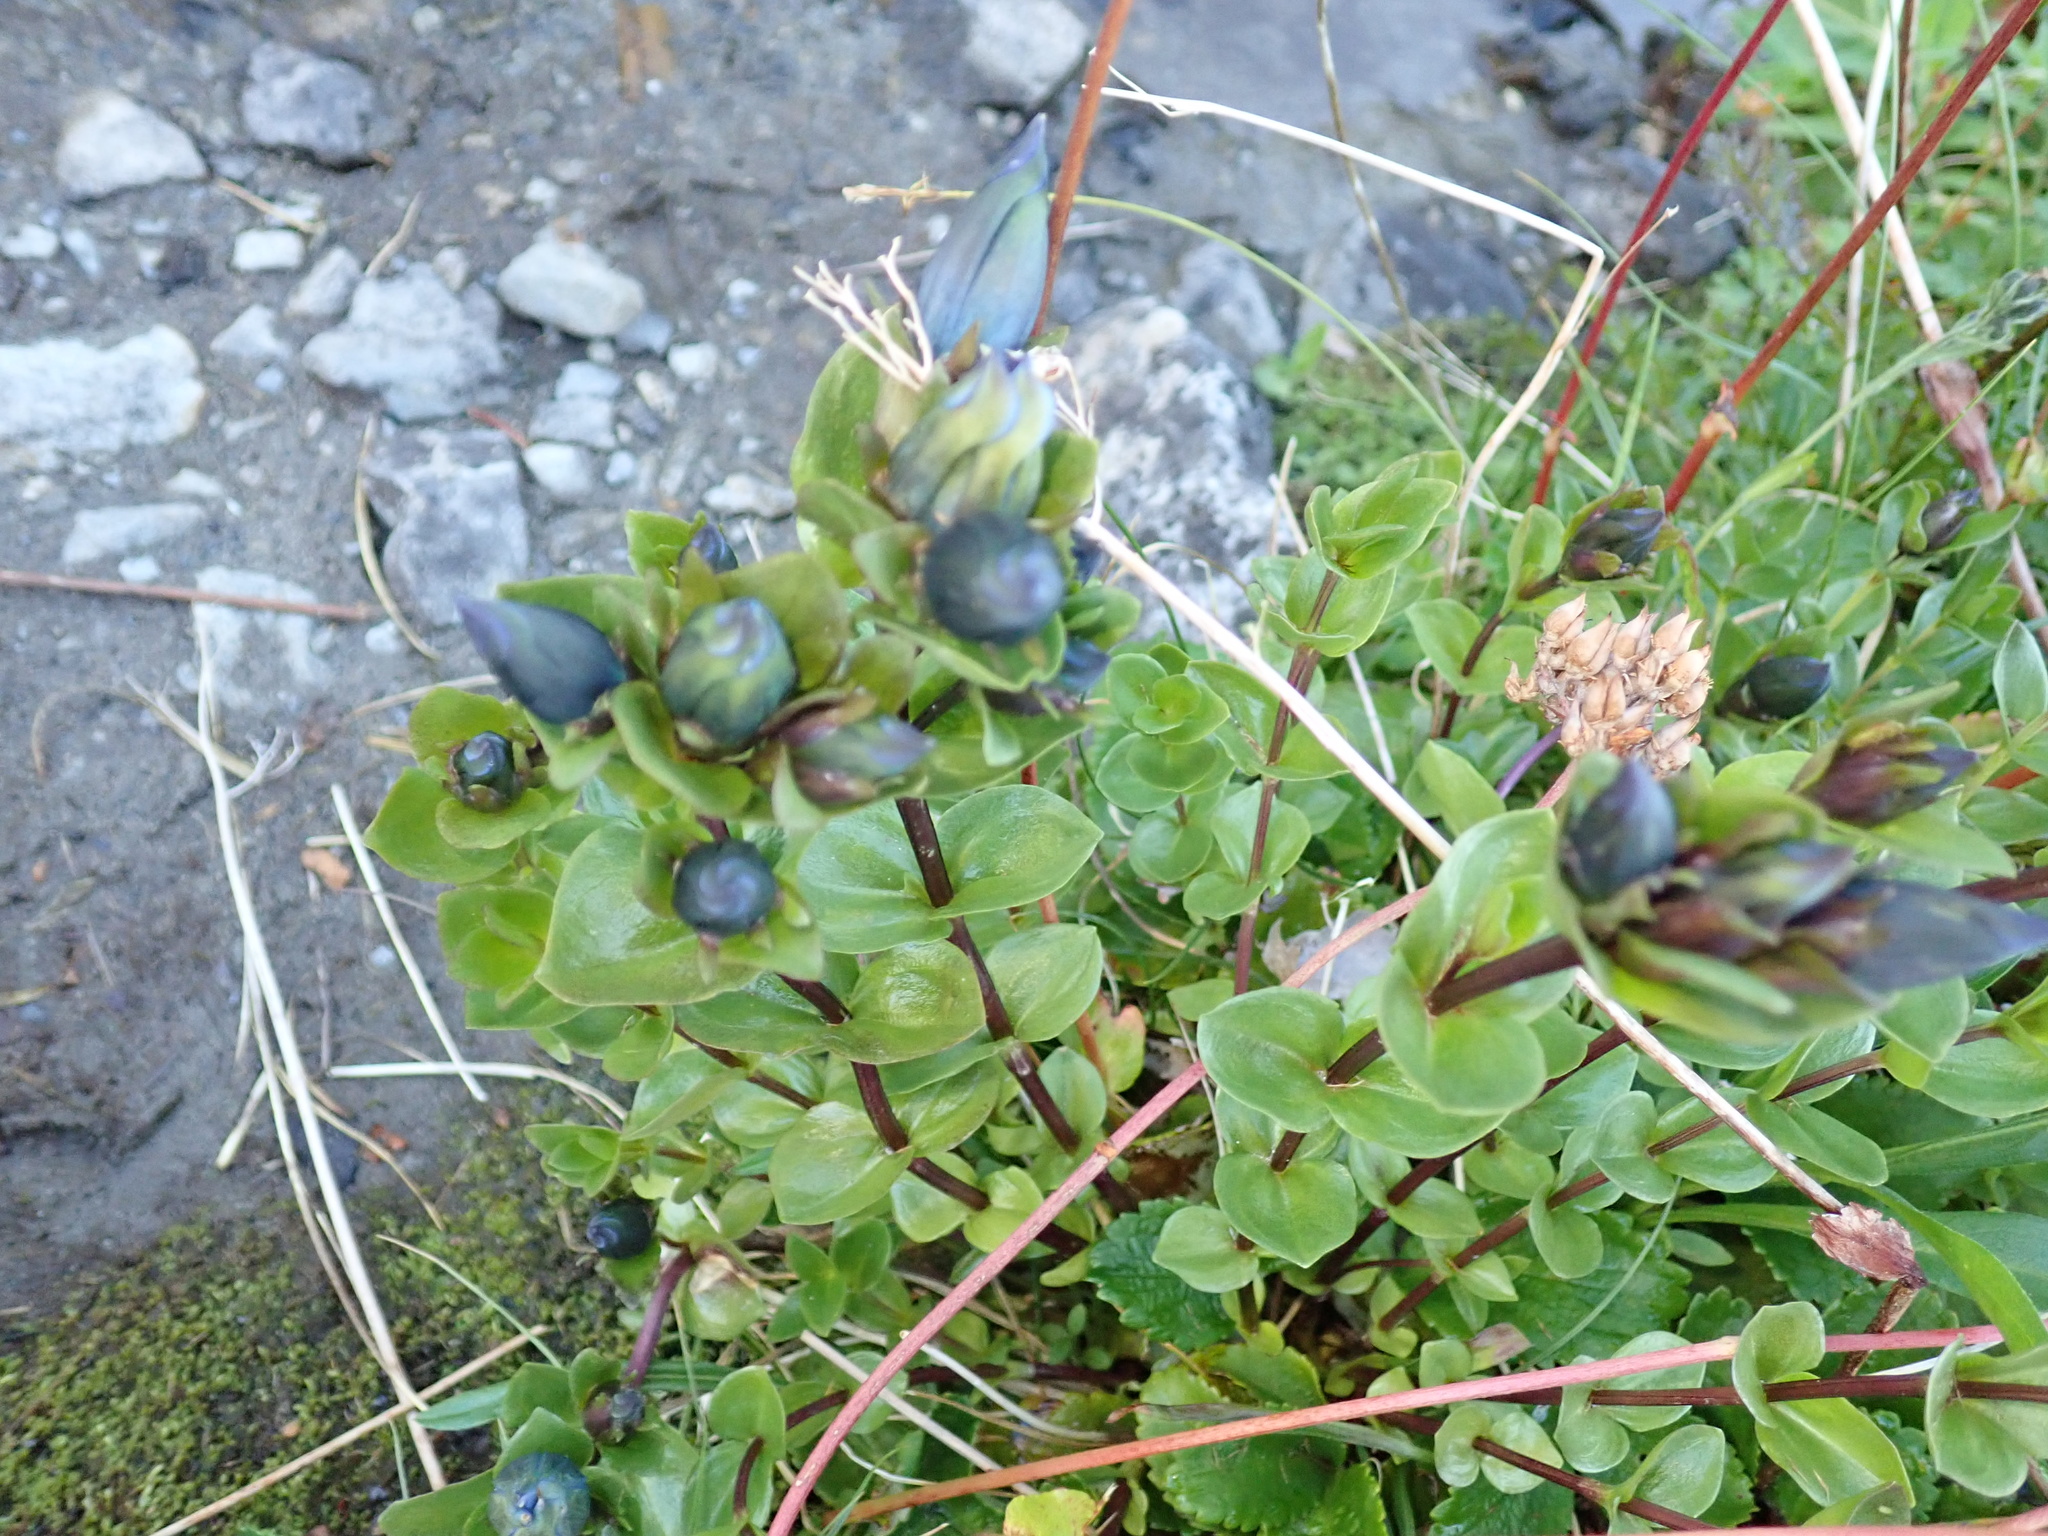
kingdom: Plantae
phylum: Tracheophyta
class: Magnoliopsida
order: Gentianales
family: Gentianaceae
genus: Gentiana
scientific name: Gentiana calycosa
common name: Rainier pleated gentian
